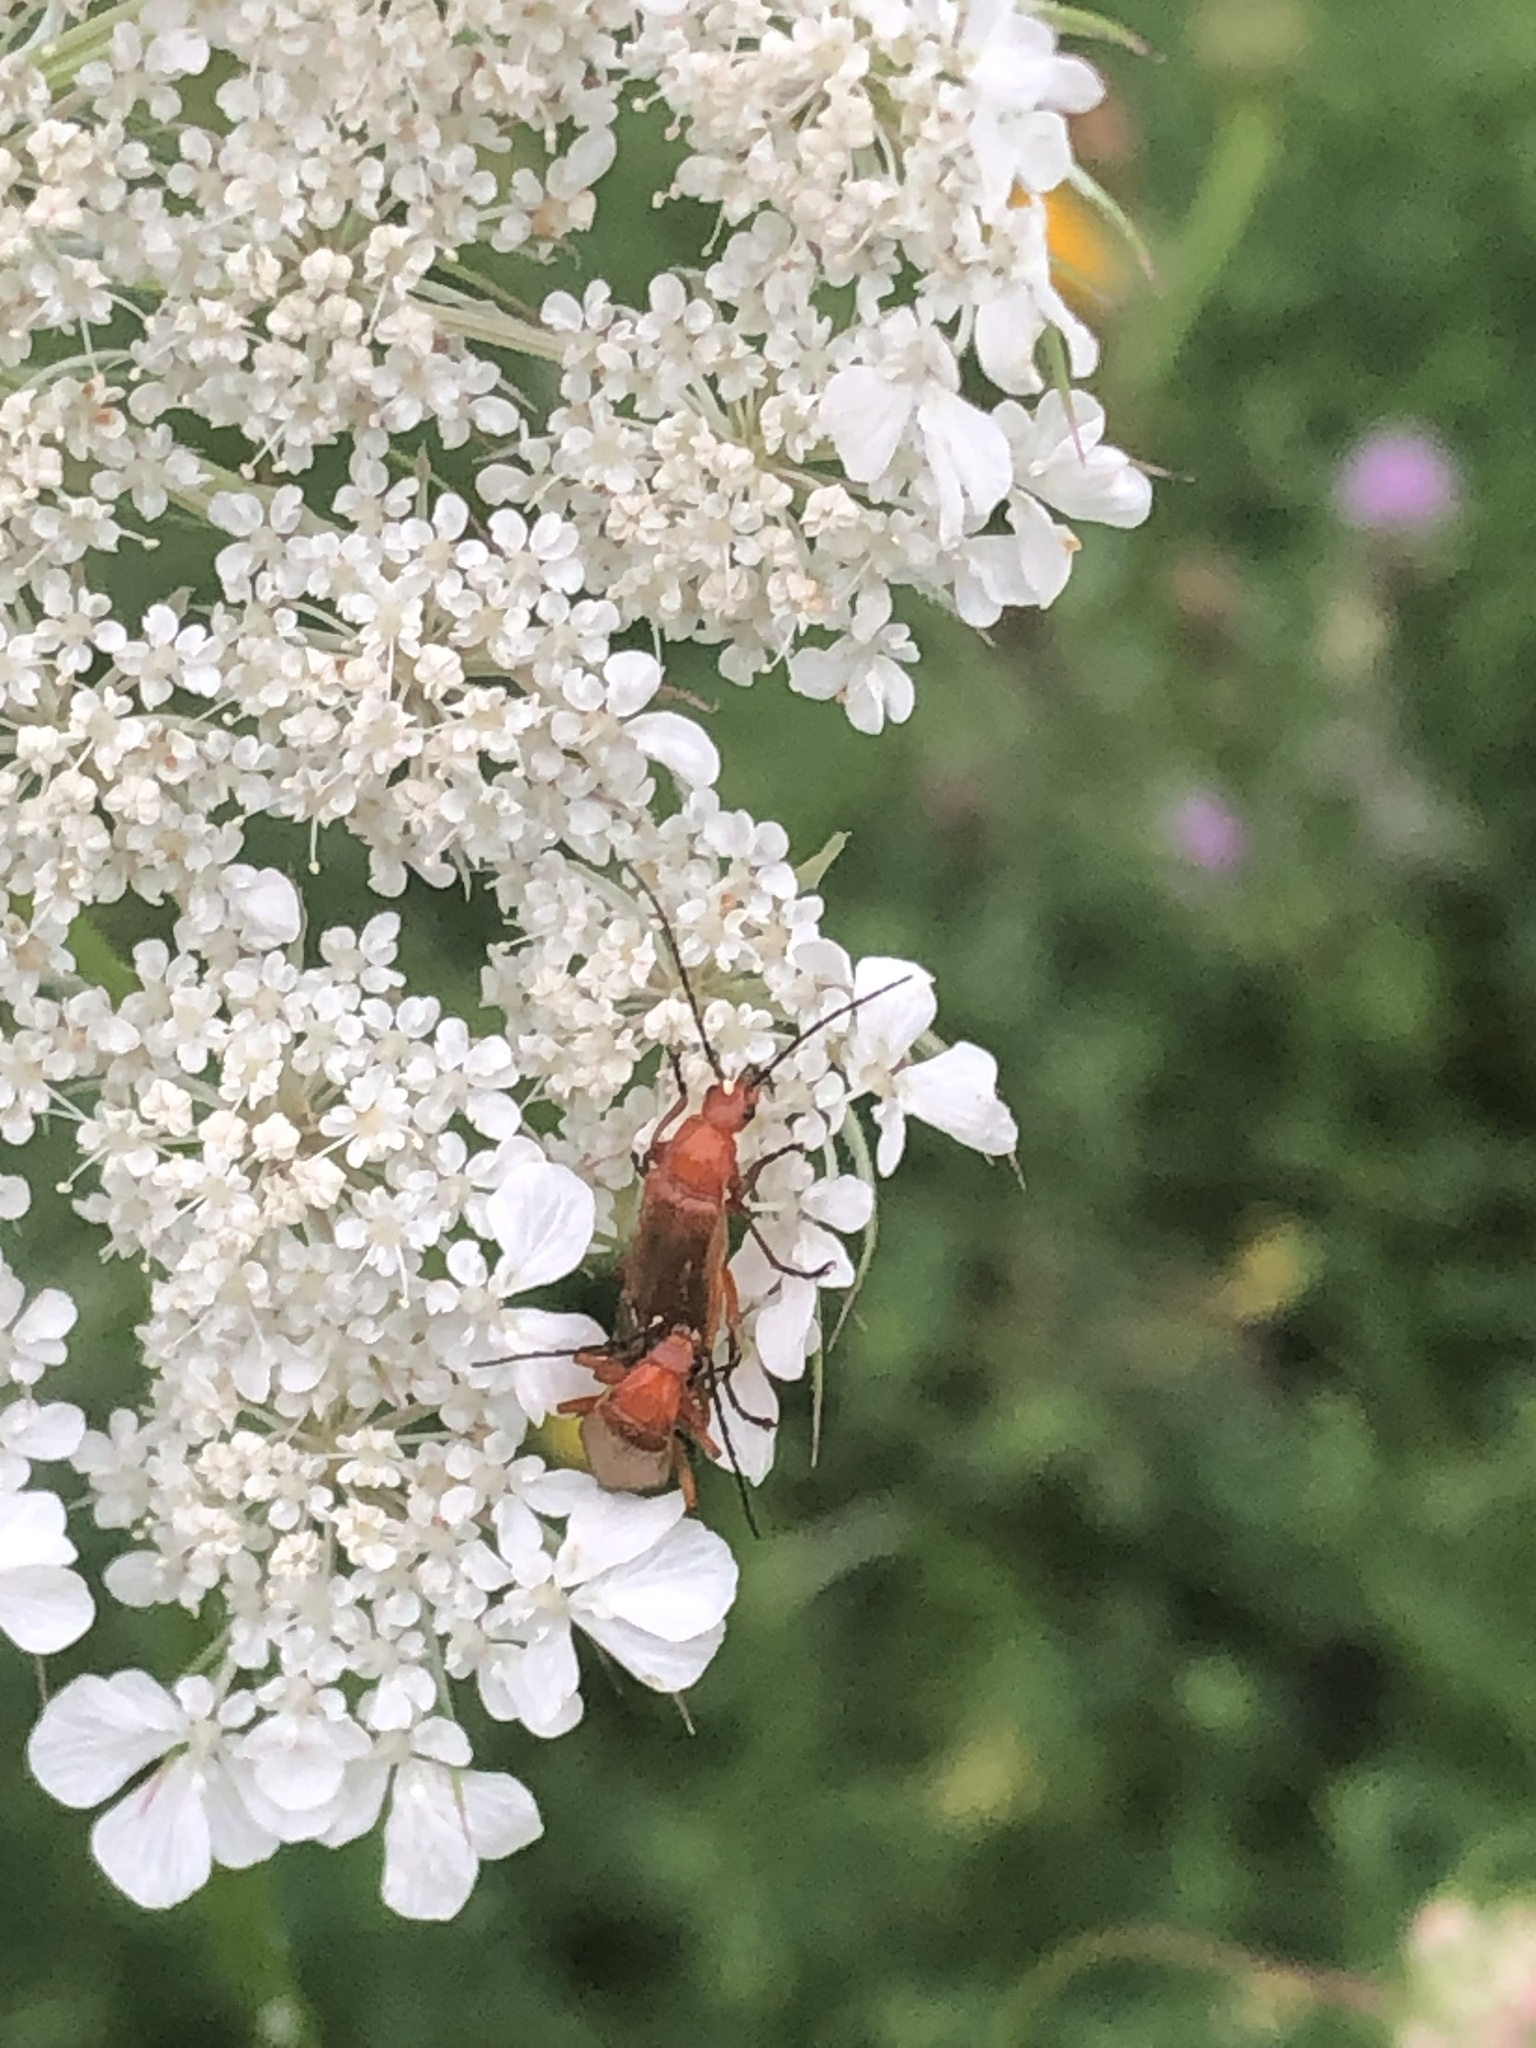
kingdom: Animalia
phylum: Arthropoda
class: Insecta
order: Coleoptera
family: Cantharidae
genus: Rhagonycha
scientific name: Rhagonycha fulva
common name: Common red soldier beetle
